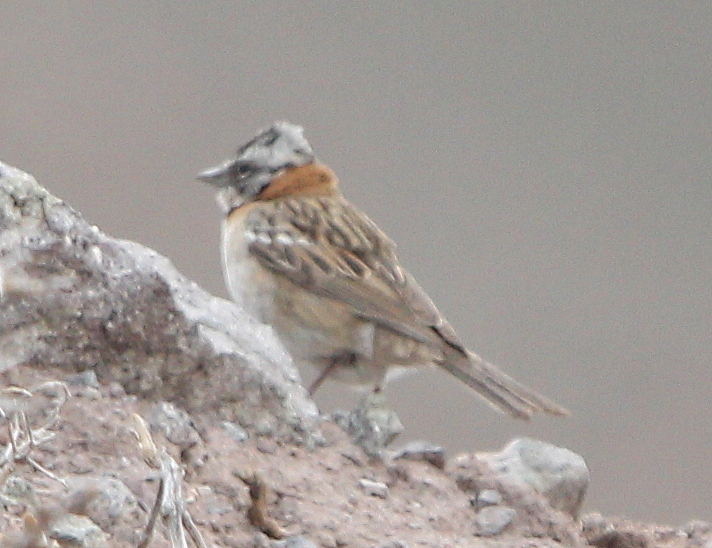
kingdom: Animalia
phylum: Chordata
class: Aves
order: Passeriformes
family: Passerellidae
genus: Zonotrichia
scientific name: Zonotrichia capensis
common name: Rufous-collared sparrow
